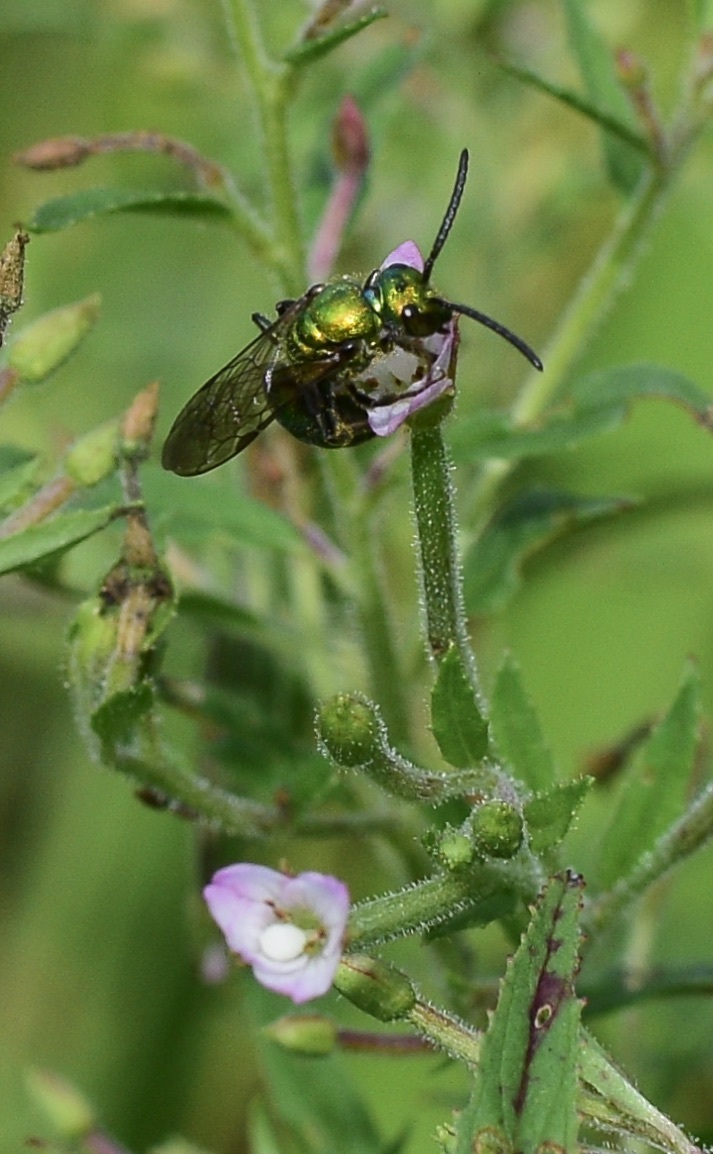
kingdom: Animalia
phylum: Arthropoda
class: Insecta
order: Hymenoptera
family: Halictidae
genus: Augochlora
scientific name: Augochlora pura
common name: Pure green sweat bee
